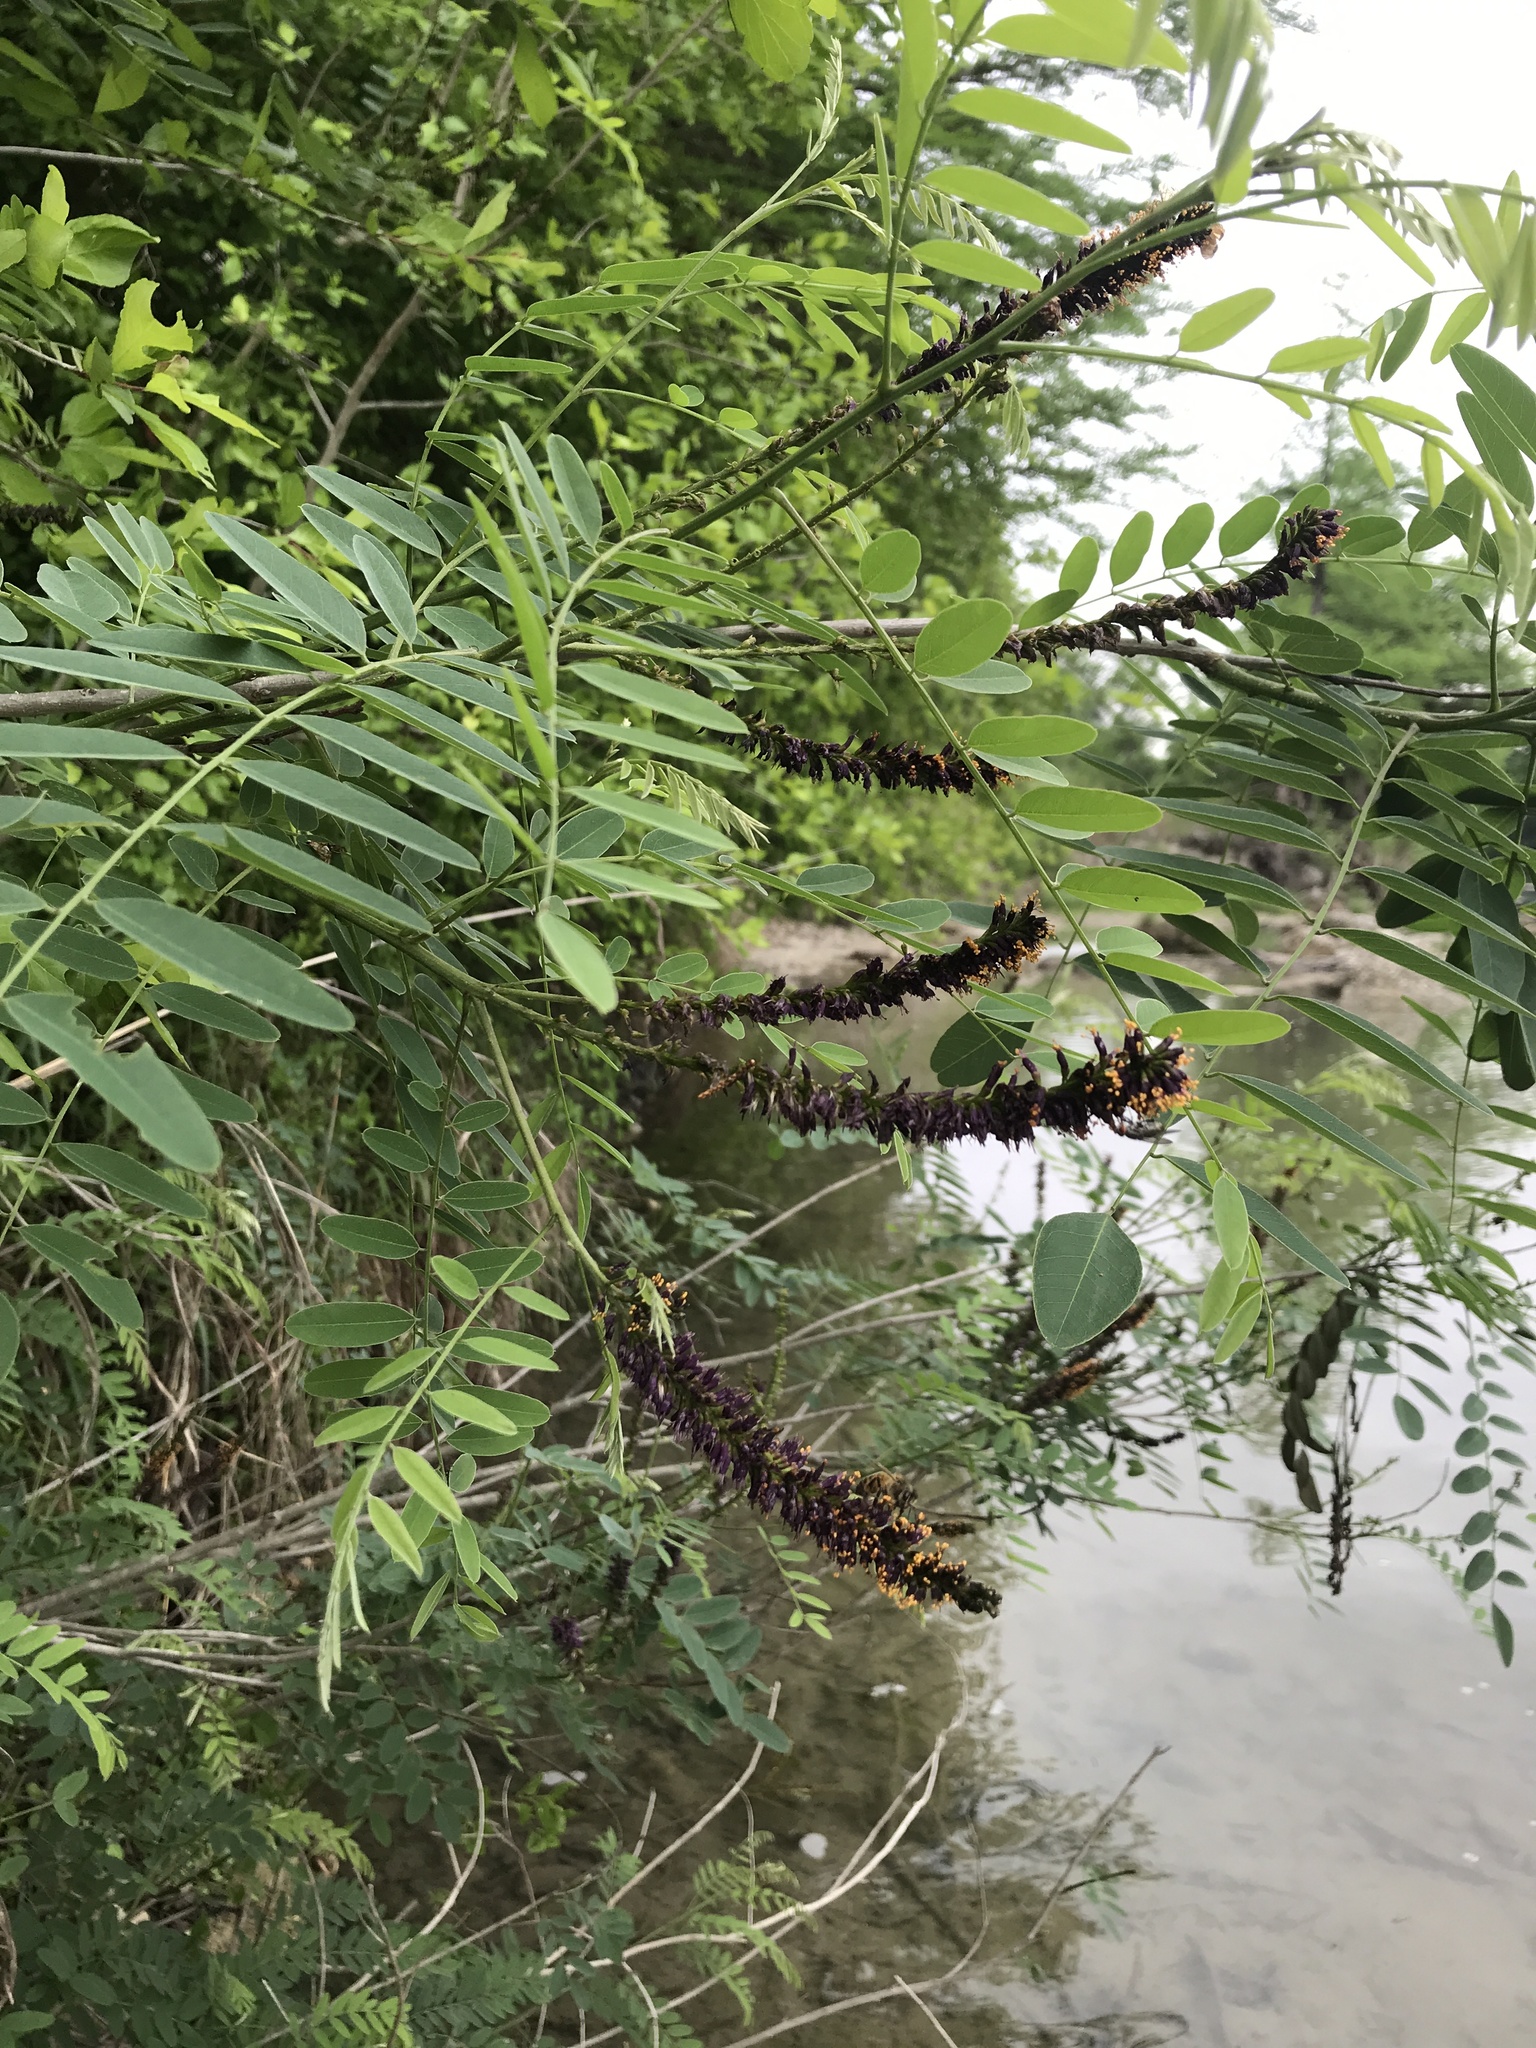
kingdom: Plantae
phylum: Tracheophyta
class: Magnoliopsida
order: Fabales
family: Fabaceae
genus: Amorpha
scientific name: Amorpha fruticosa
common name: False indigo
